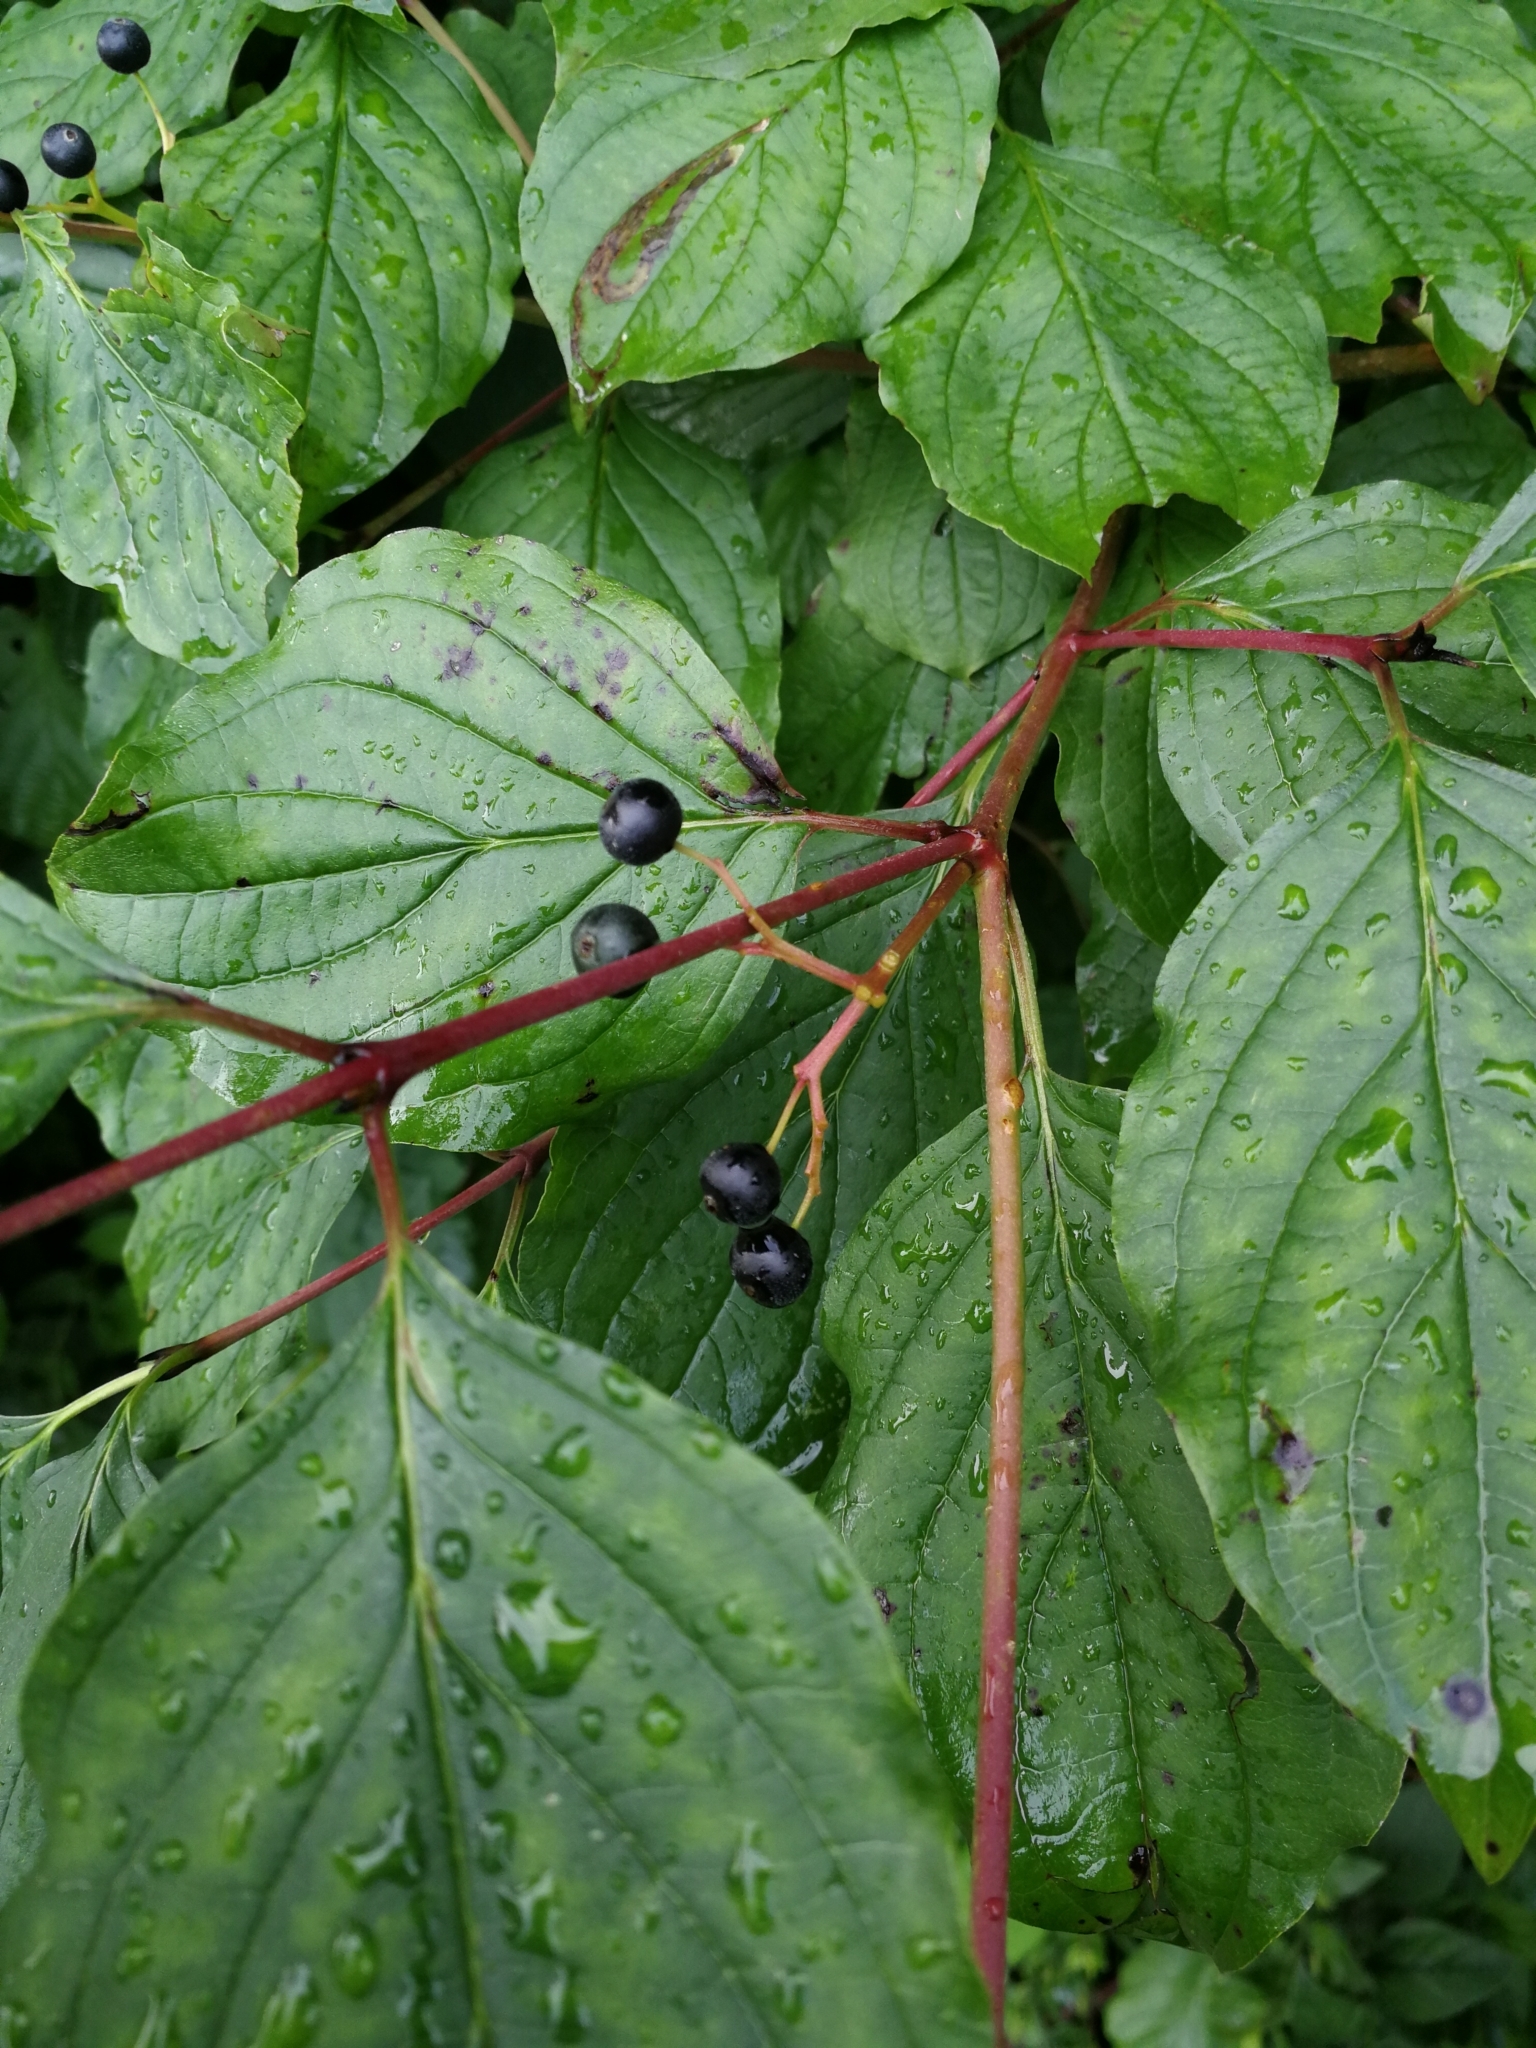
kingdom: Plantae
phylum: Tracheophyta
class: Magnoliopsida
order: Cornales
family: Cornaceae
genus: Cornus
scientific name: Cornus sanguinea
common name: Dogwood
